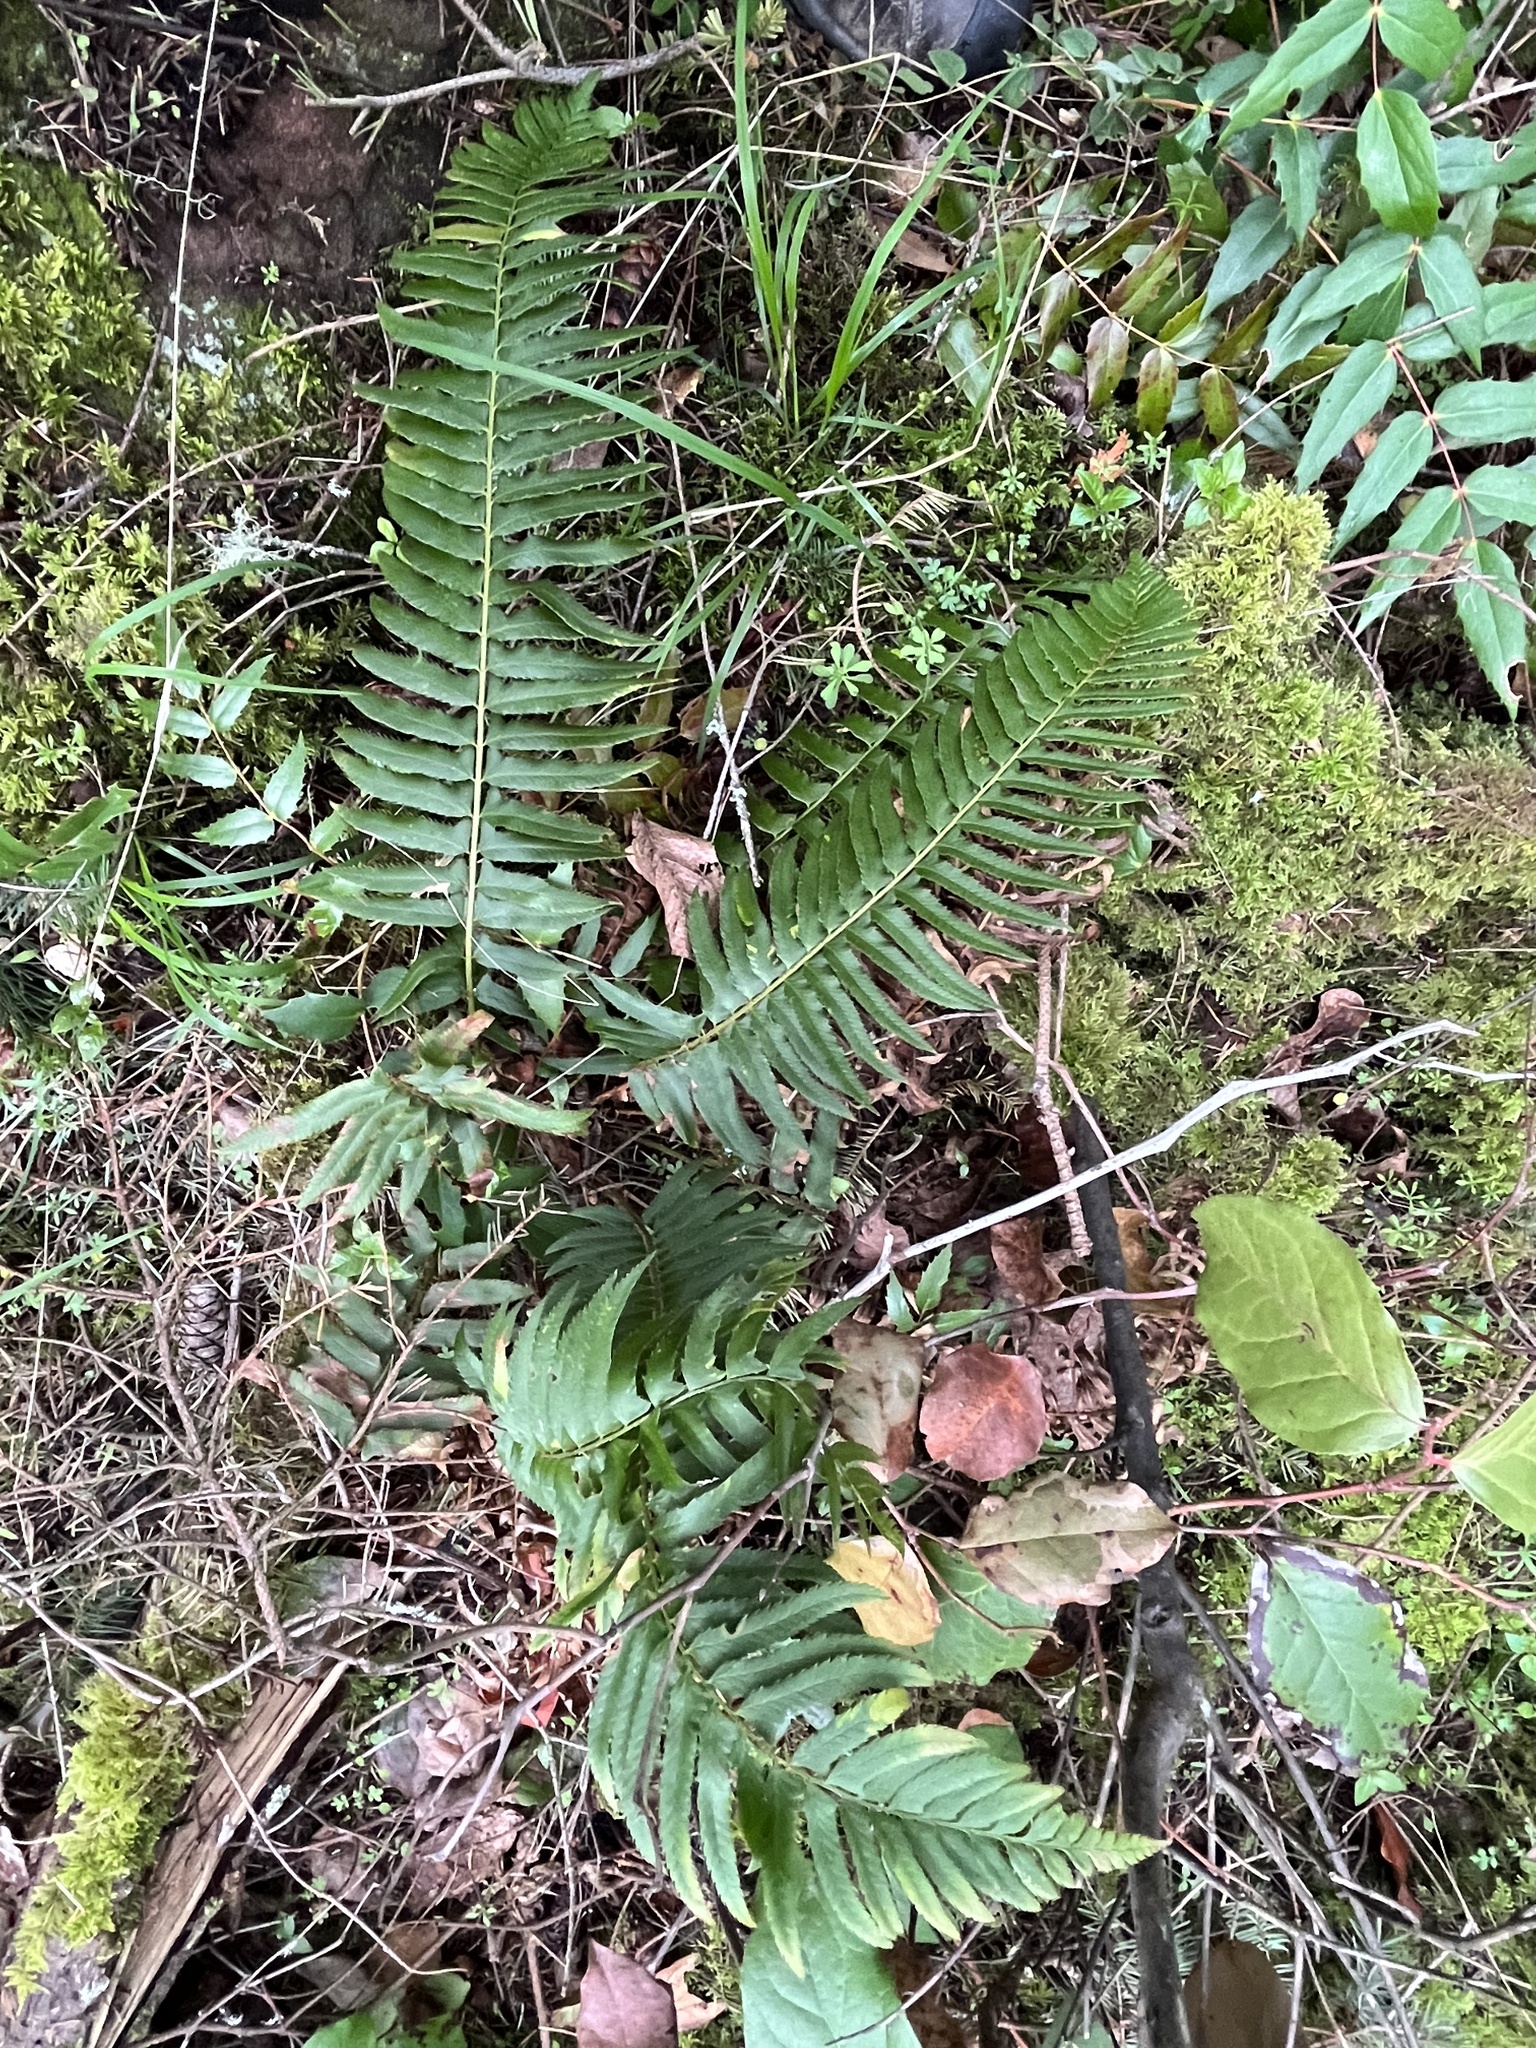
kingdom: Plantae
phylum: Tracheophyta
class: Polypodiopsida
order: Polypodiales
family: Dryopteridaceae
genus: Polystichum
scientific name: Polystichum munitum
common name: Western sword-fern
